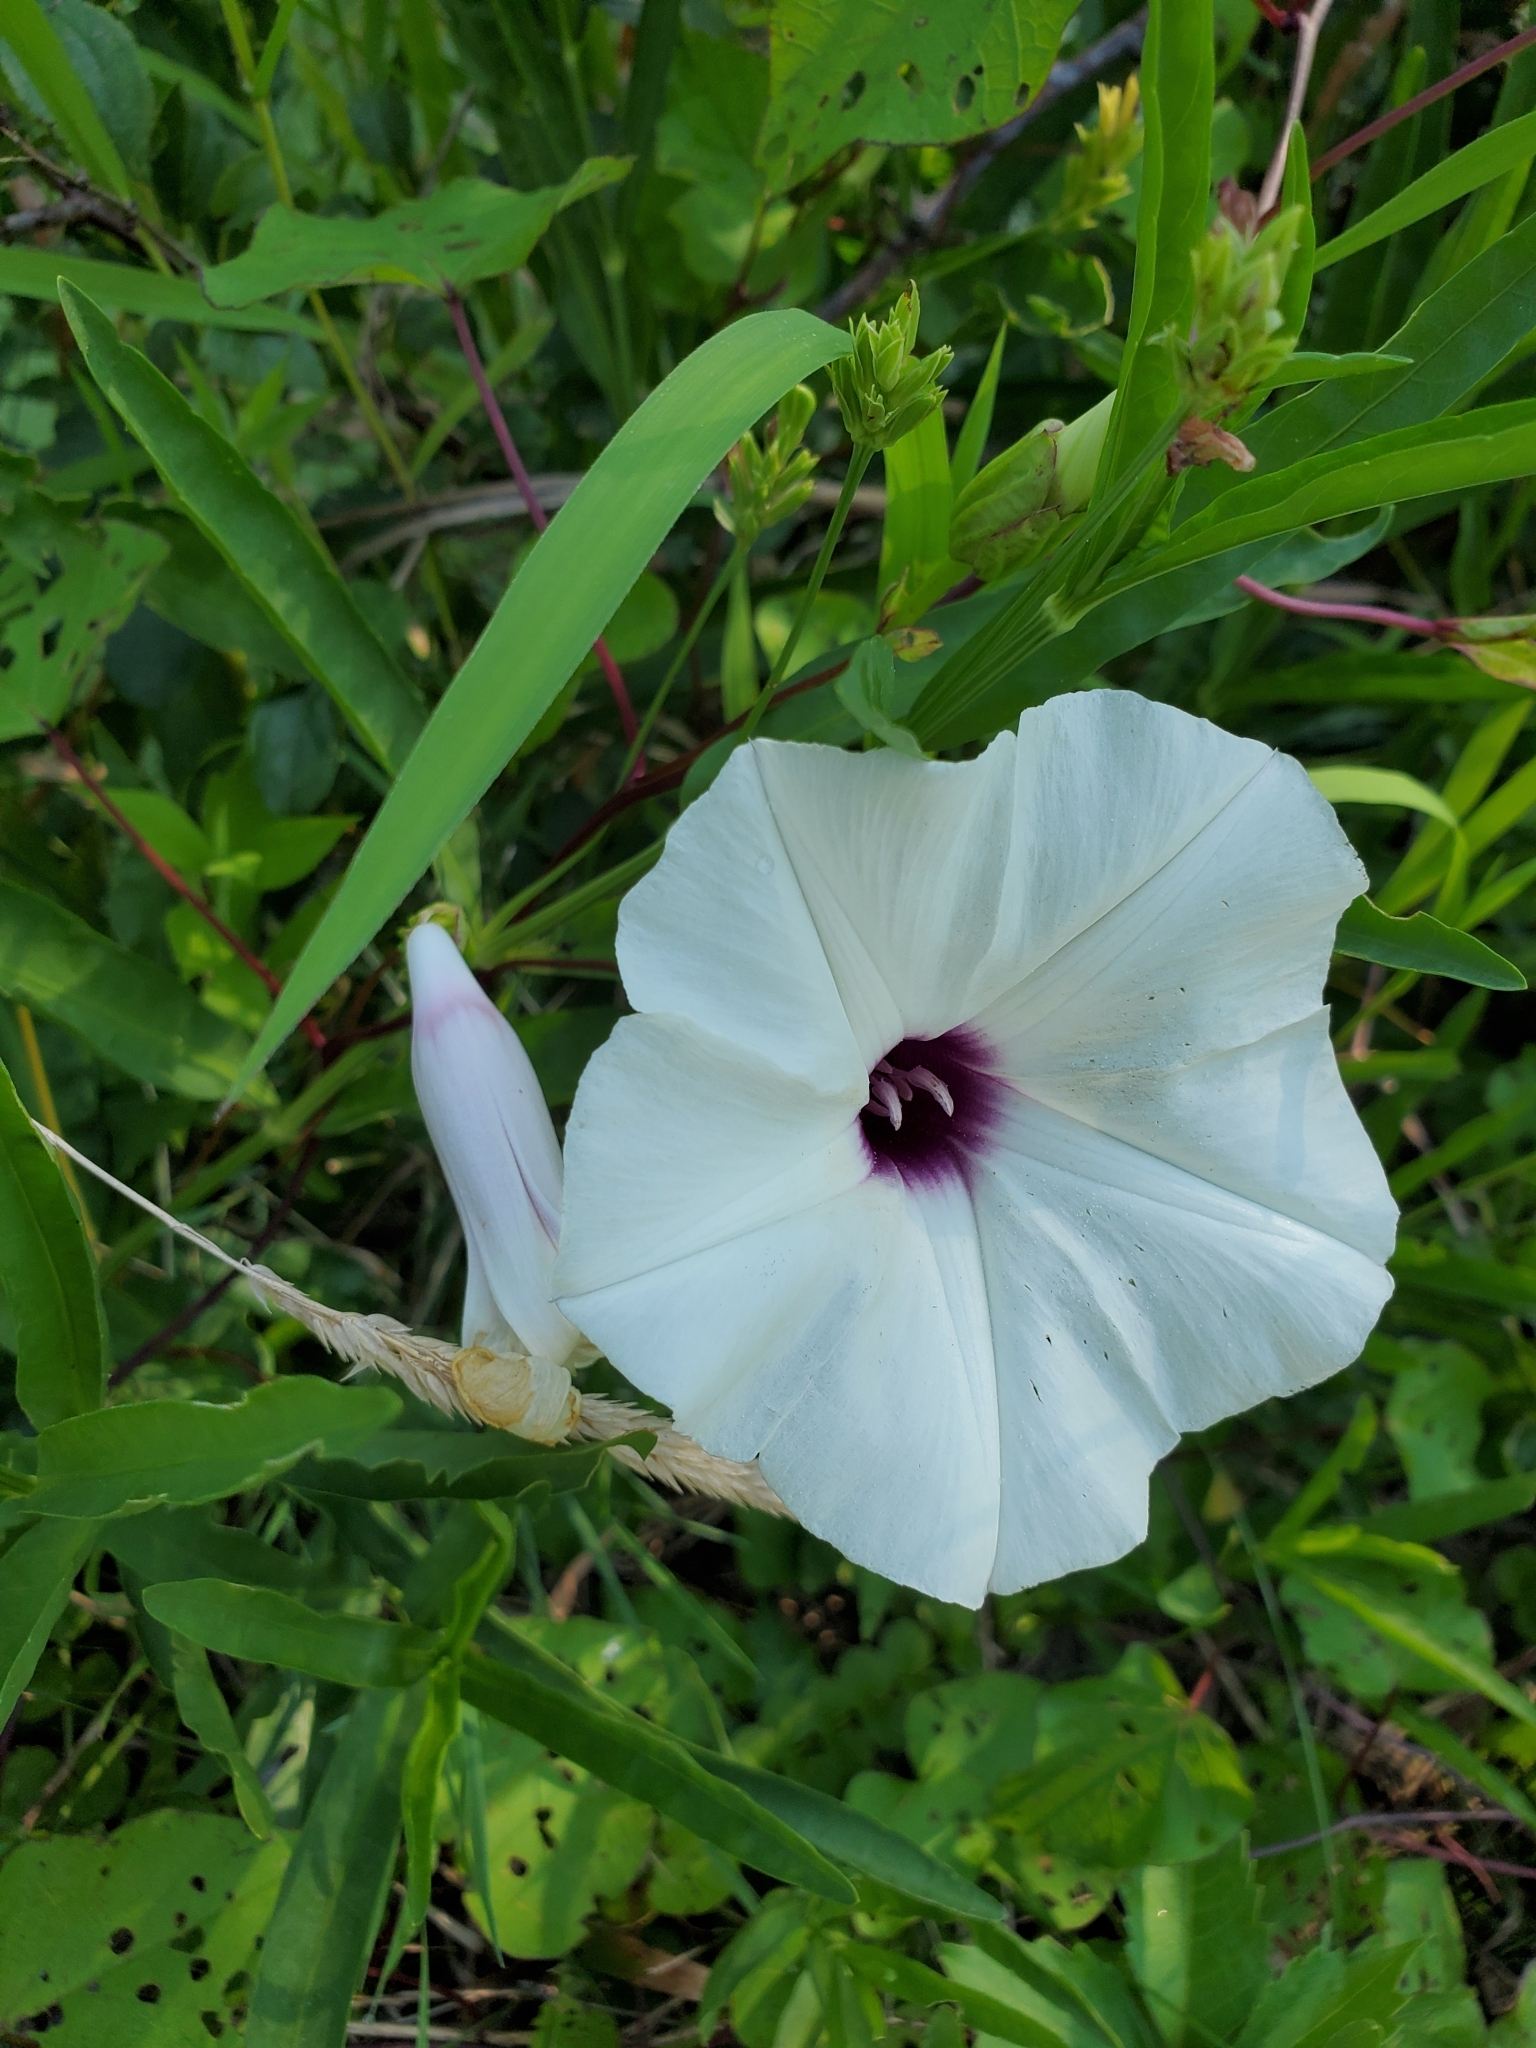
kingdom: Plantae
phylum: Tracheophyta
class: Magnoliopsida
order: Solanales
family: Convolvulaceae
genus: Ipomoea
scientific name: Ipomoea pandurata
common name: Man-of-the-earth
